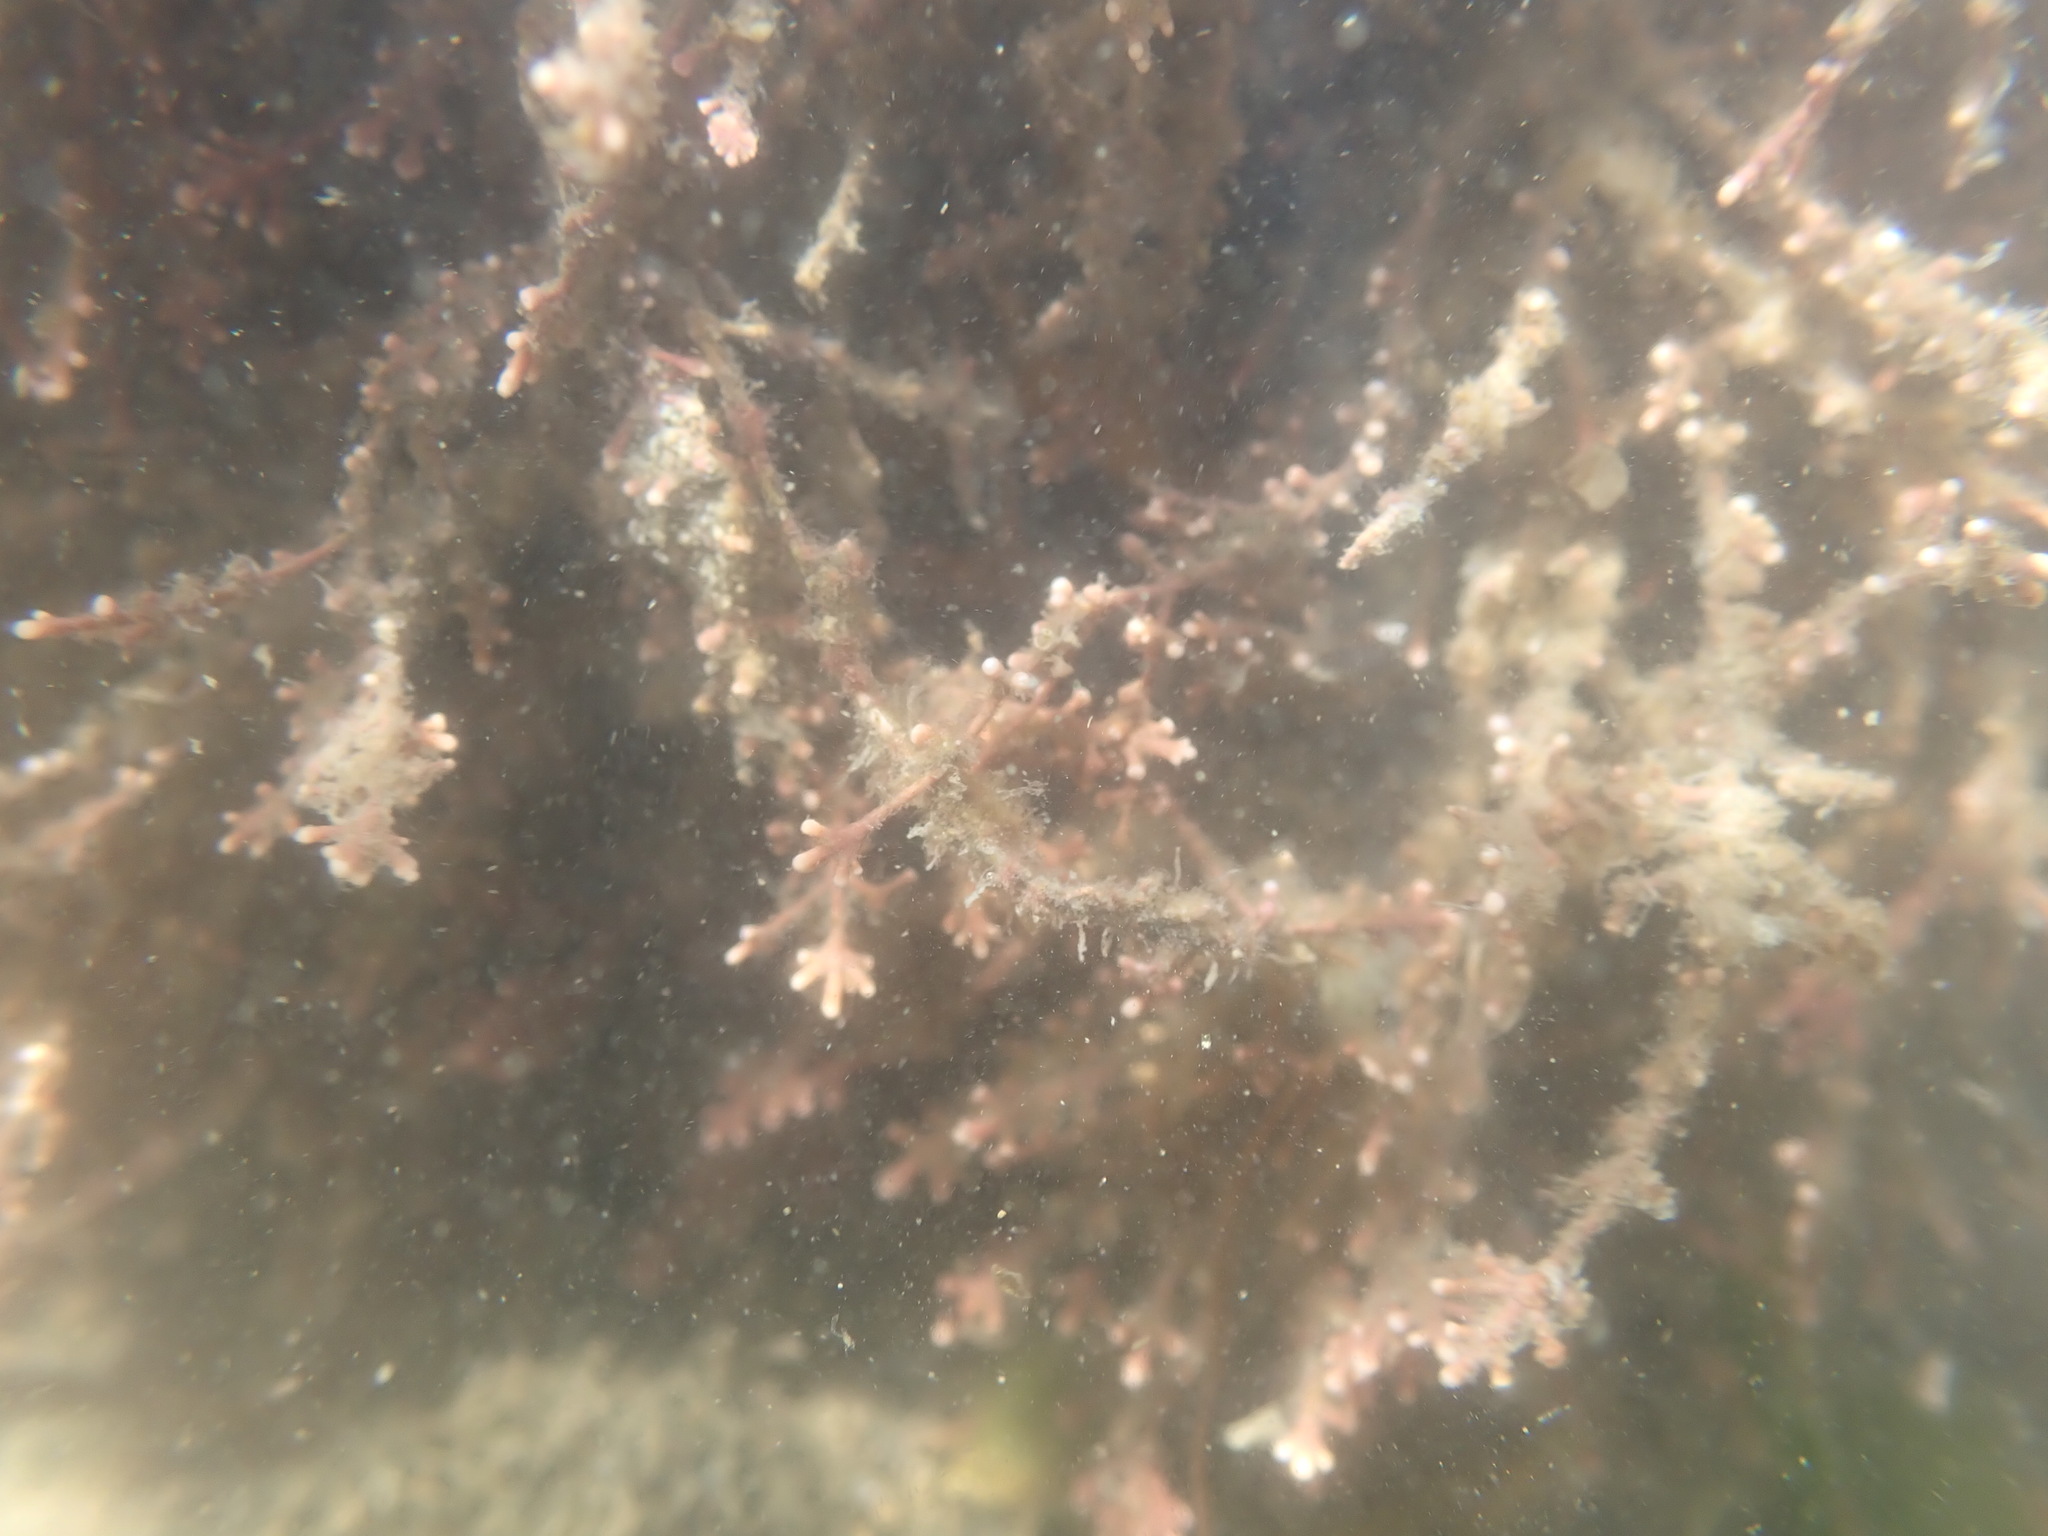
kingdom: Plantae
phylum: Rhodophyta
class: Florideophyceae
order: Corallinales
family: Corallinaceae
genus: Corallina
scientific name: Corallina officinalis
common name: Coral weed
